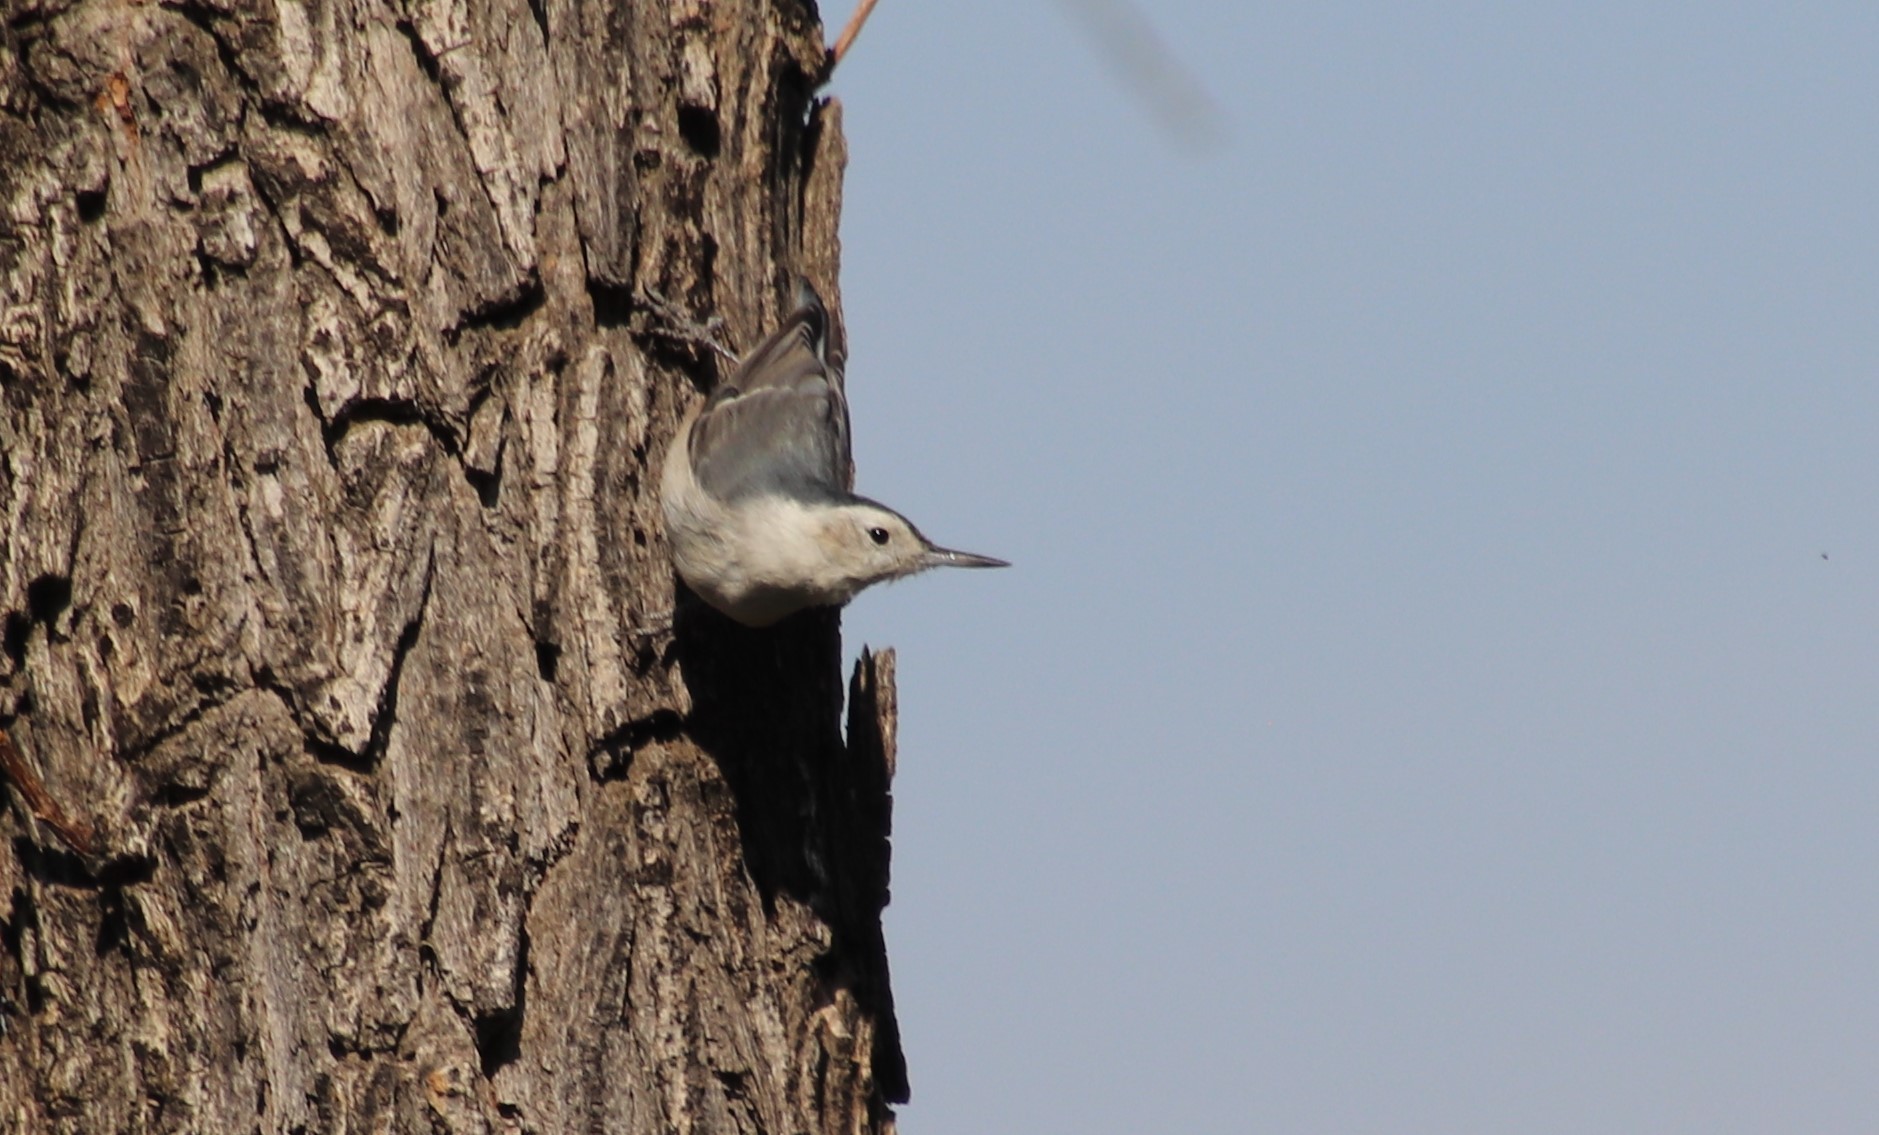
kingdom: Animalia
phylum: Chordata
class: Aves
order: Passeriformes
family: Sittidae
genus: Sitta
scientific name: Sitta carolinensis
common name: White-breasted nuthatch
